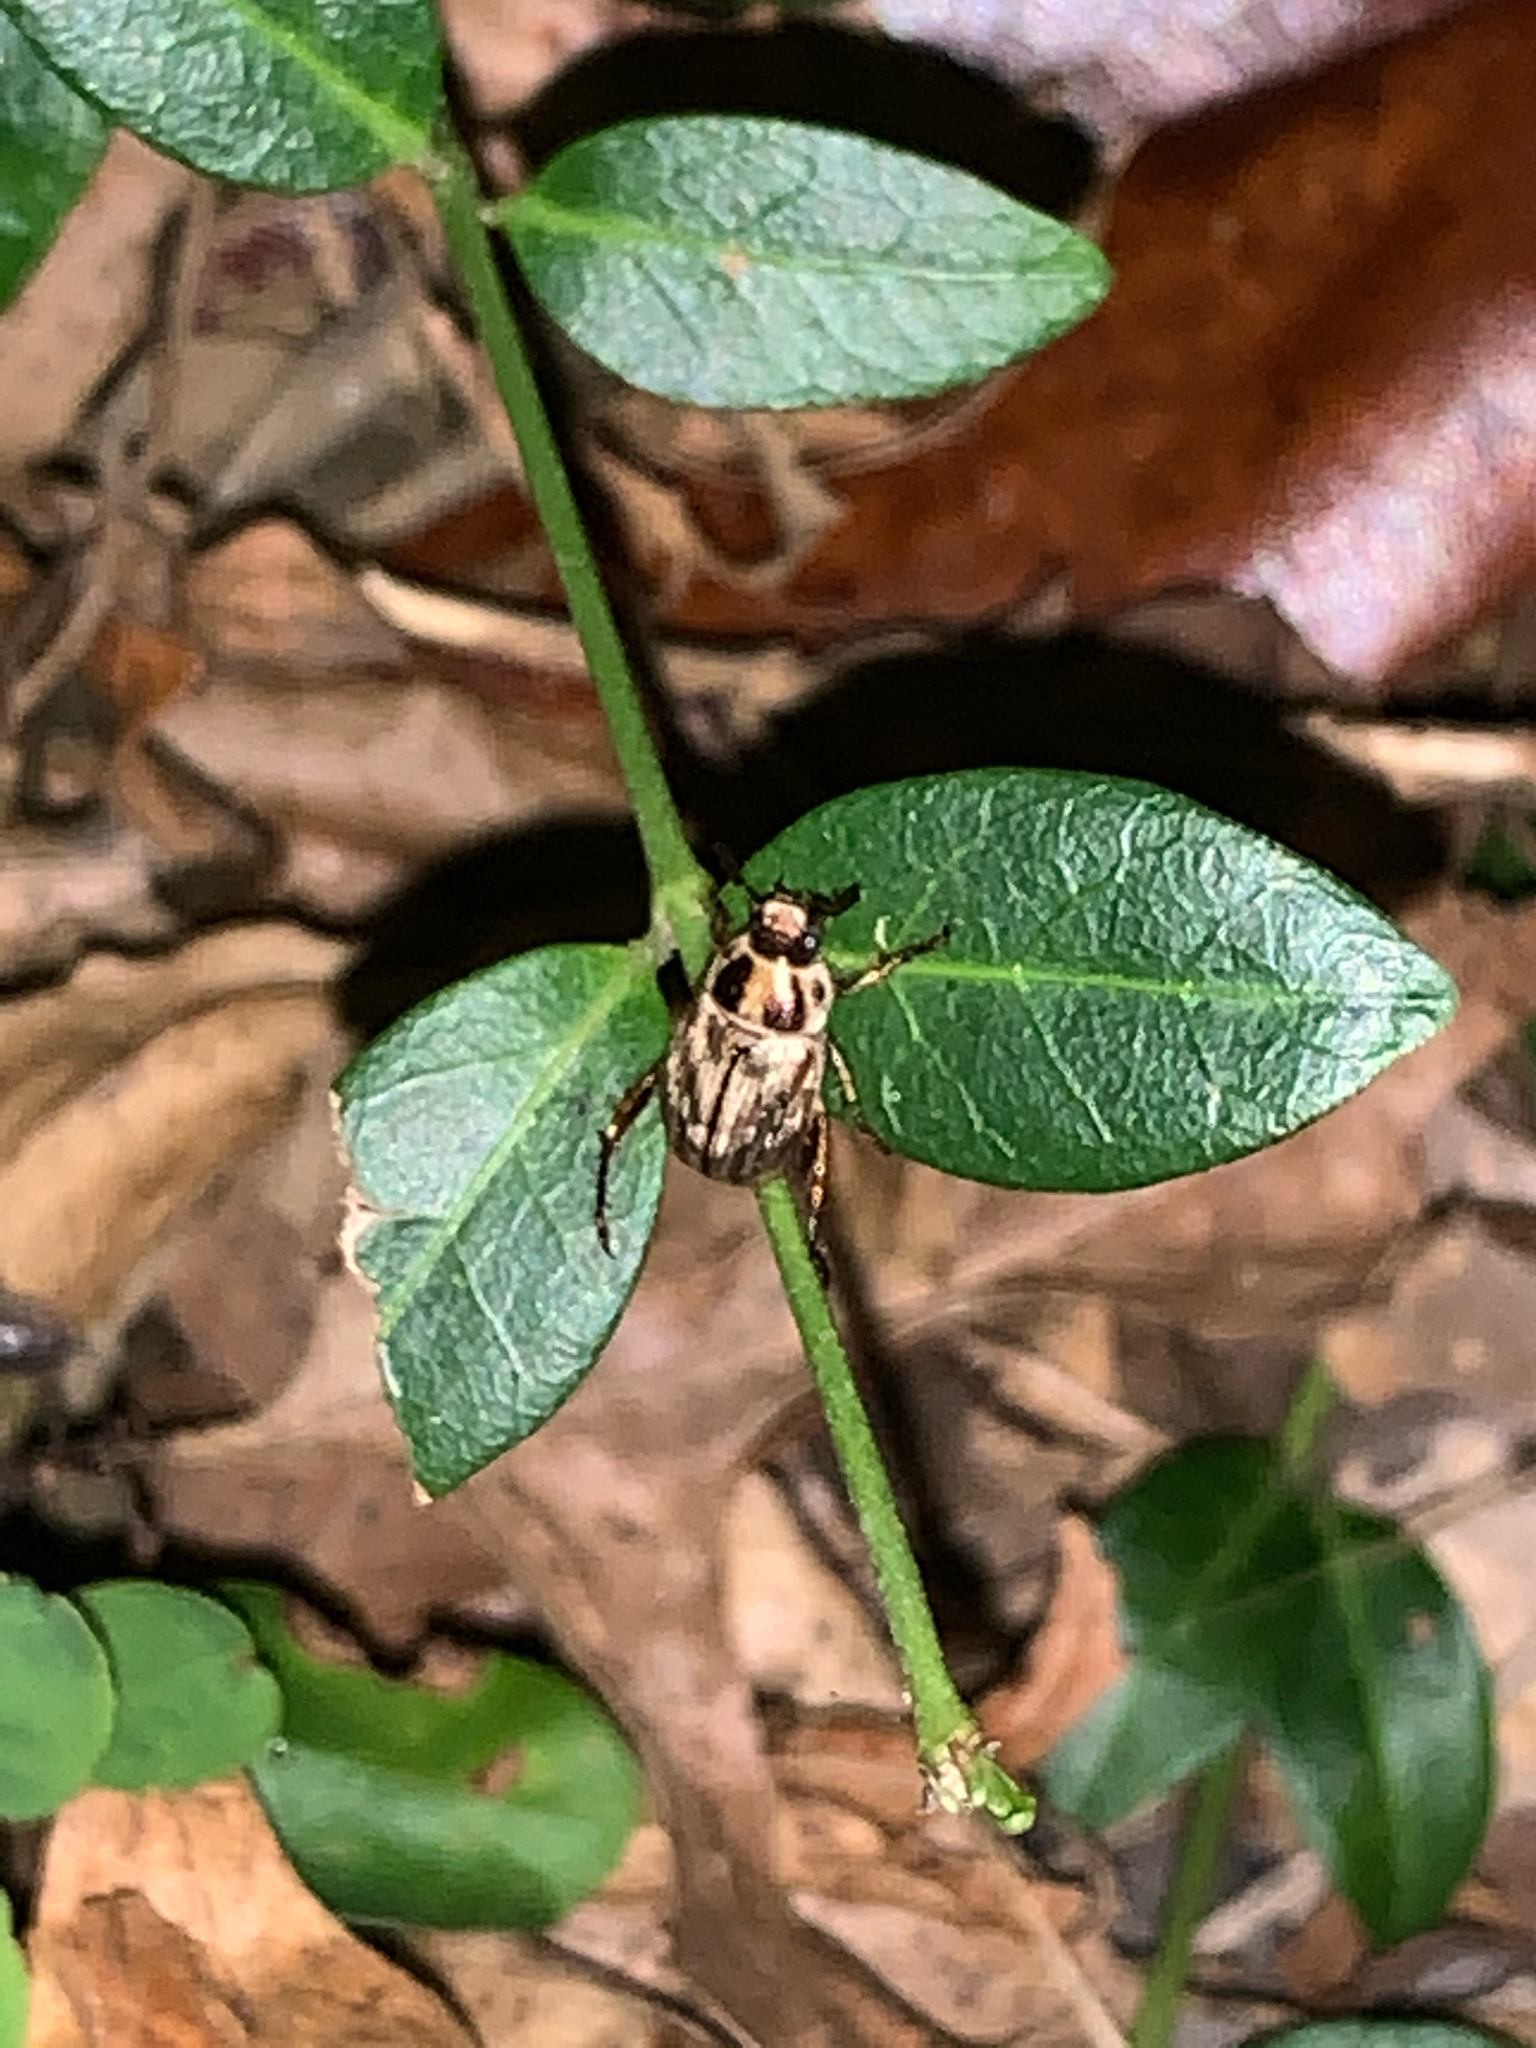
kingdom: Animalia
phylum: Arthropoda
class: Insecta
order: Coleoptera
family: Scarabaeidae
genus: Exomala
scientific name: Exomala orientalis
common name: Oriental beetle
